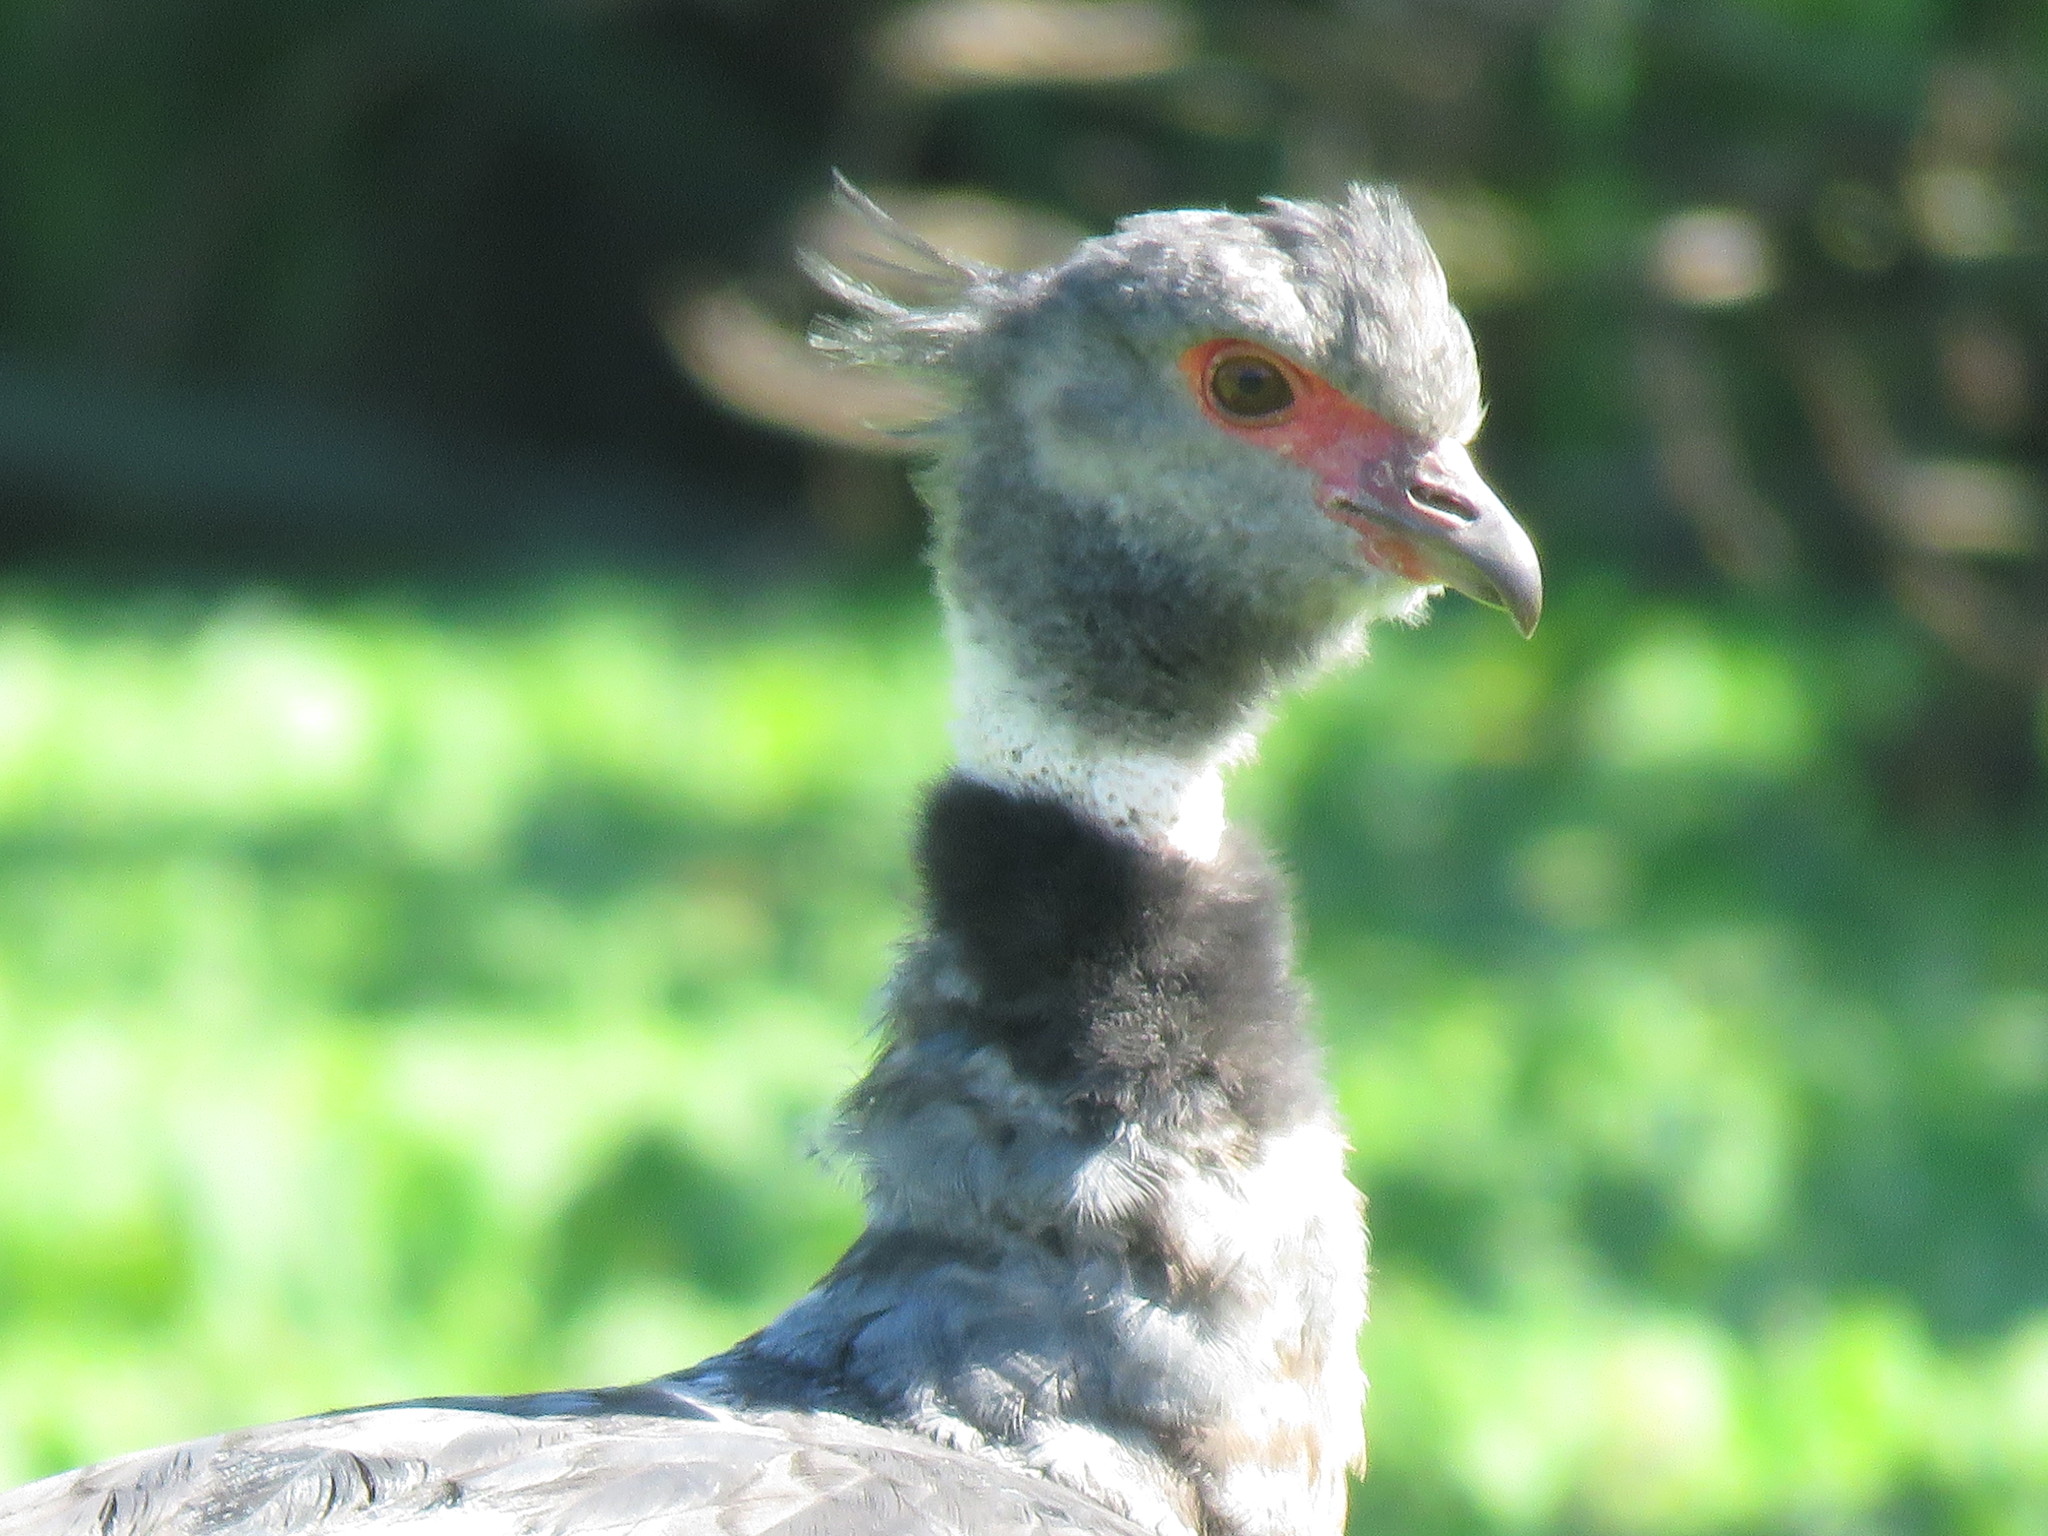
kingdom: Animalia
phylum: Chordata
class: Aves
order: Anseriformes
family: Anhimidae
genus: Chauna
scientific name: Chauna torquata
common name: Southern screamer
